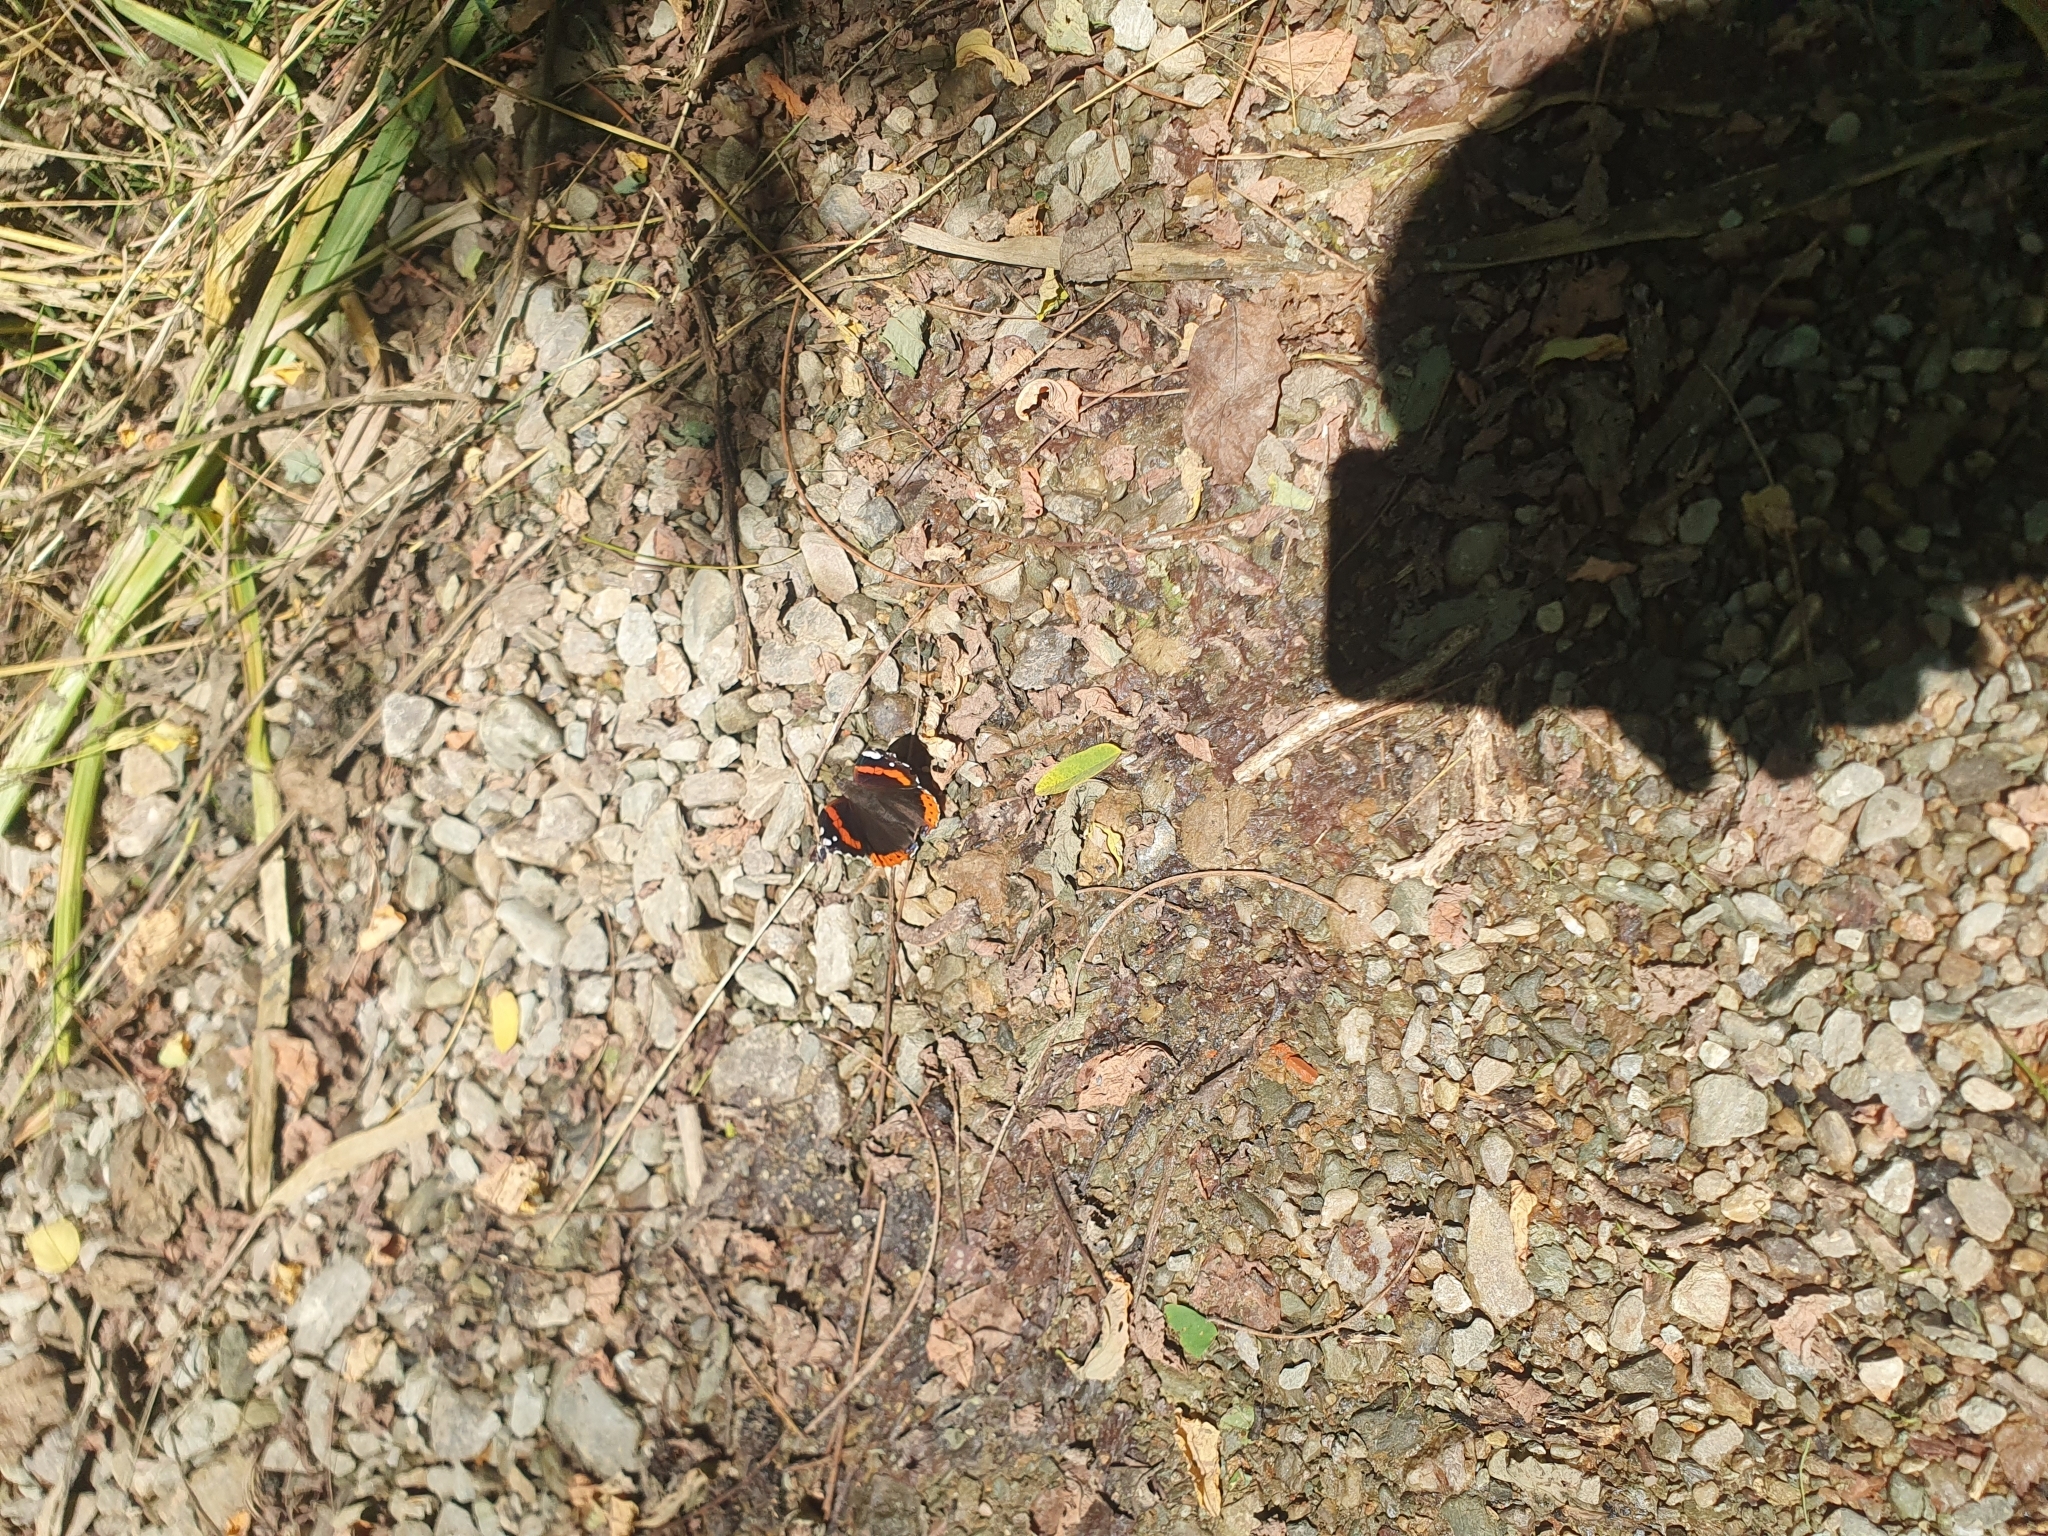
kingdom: Animalia
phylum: Arthropoda
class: Insecta
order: Lepidoptera
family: Nymphalidae
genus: Vanessa
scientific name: Vanessa atalanta
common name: Red admiral
